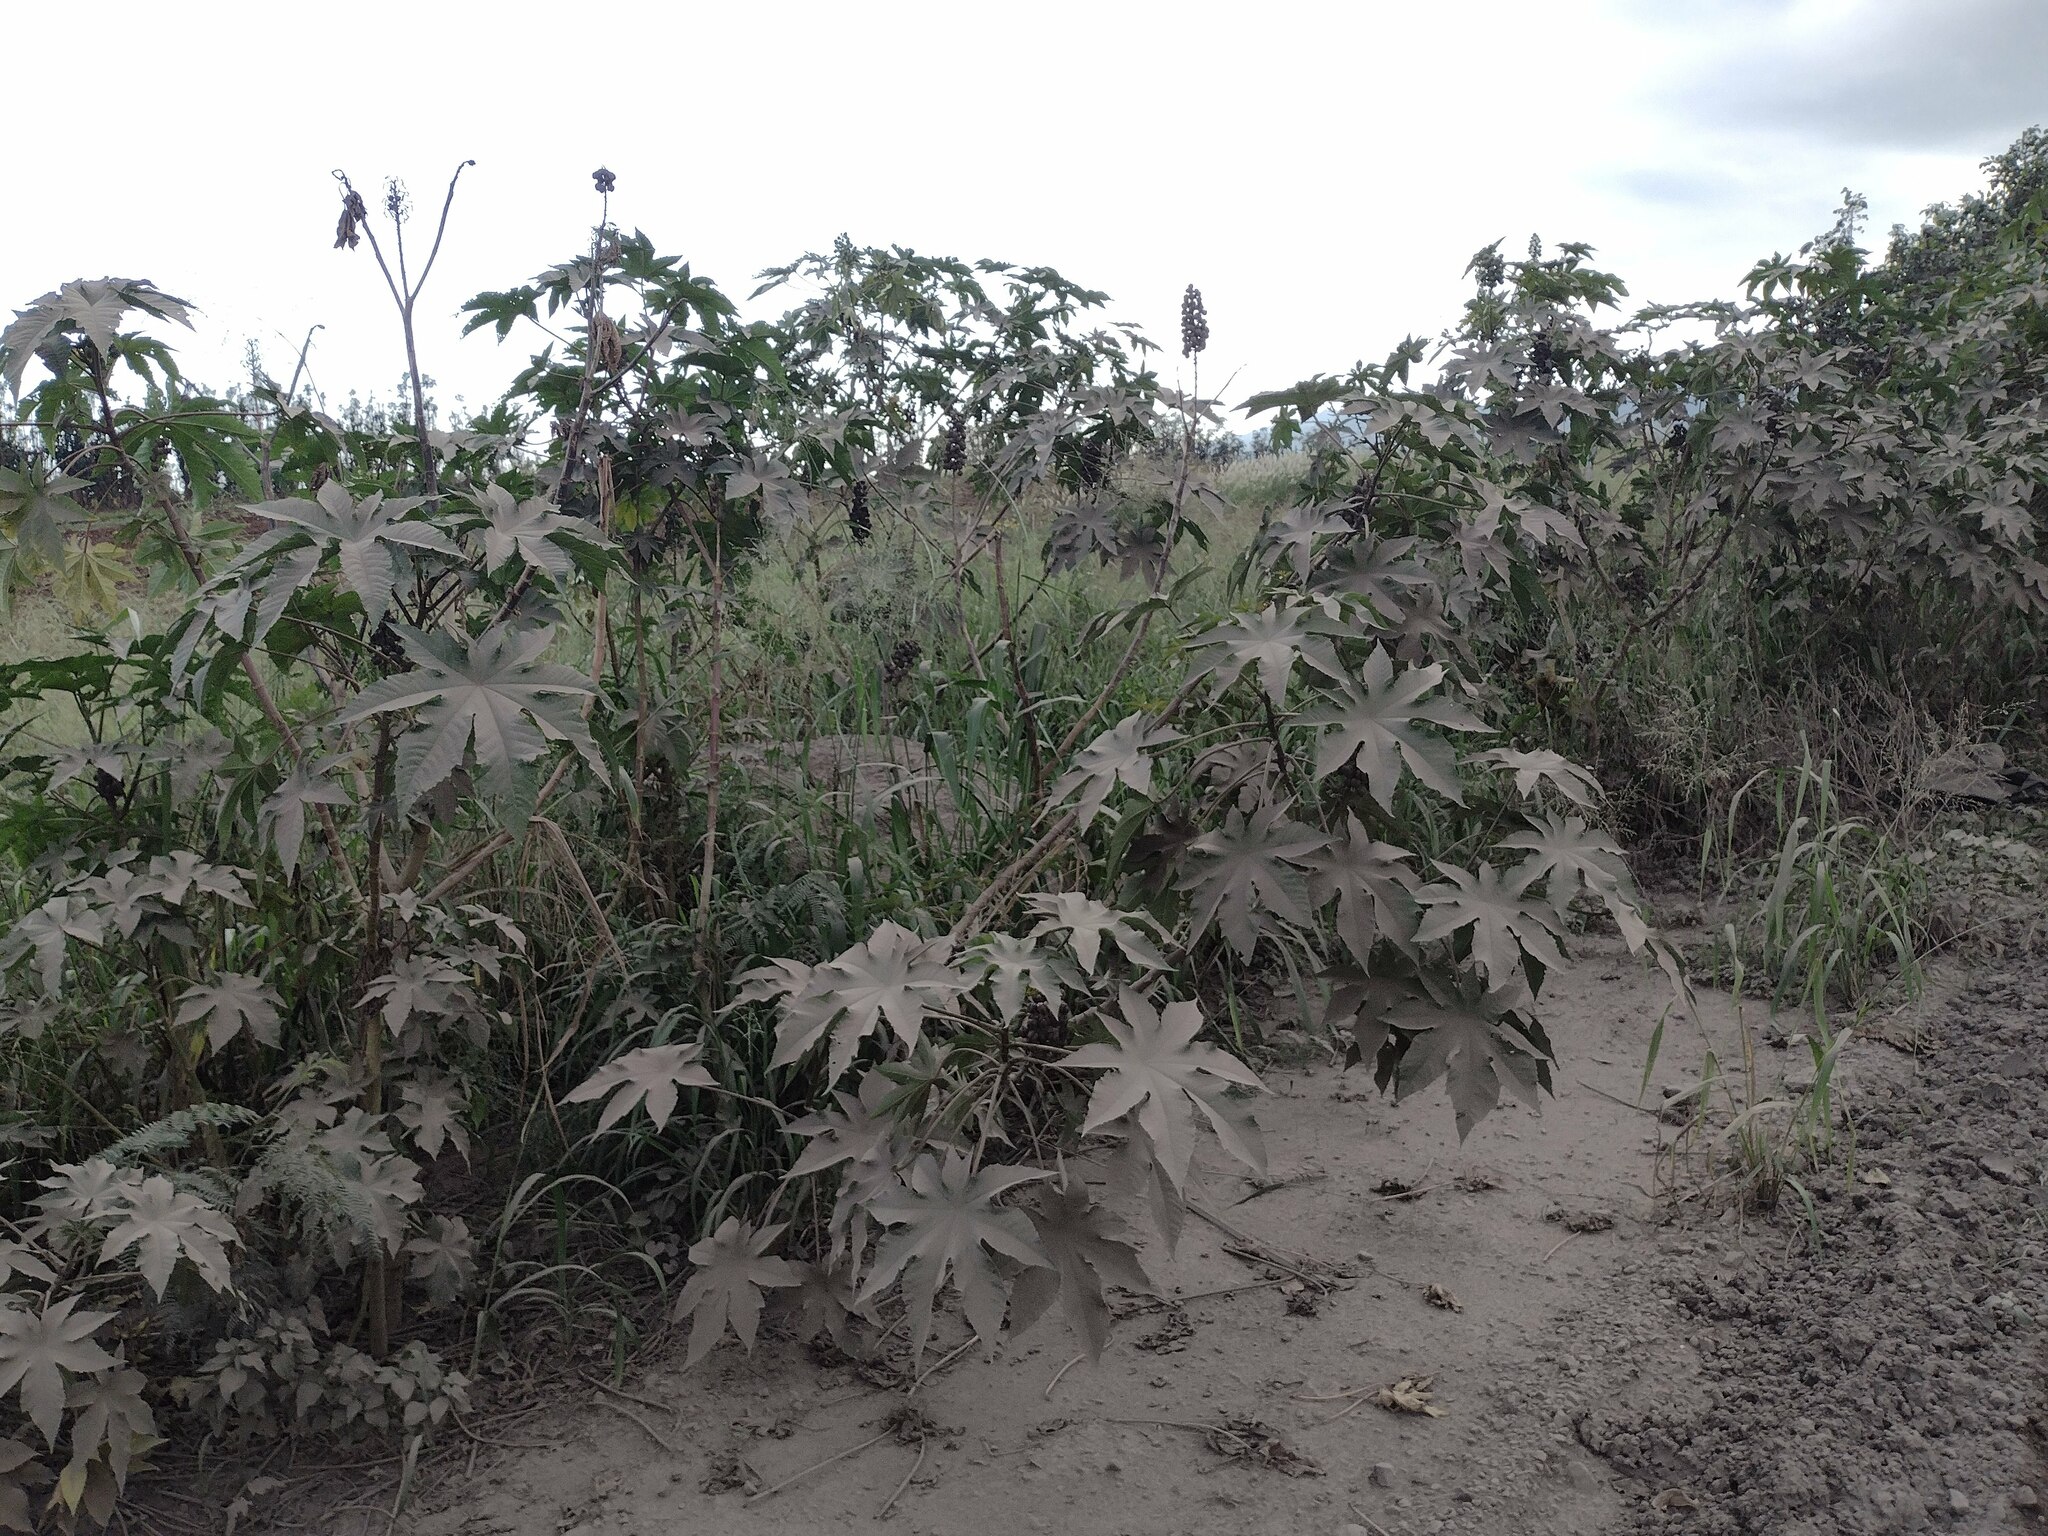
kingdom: Plantae
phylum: Tracheophyta
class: Magnoliopsida
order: Malpighiales
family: Euphorbiaceae
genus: Ricinus
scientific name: Ricinus communis
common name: Castor-oil-plant
